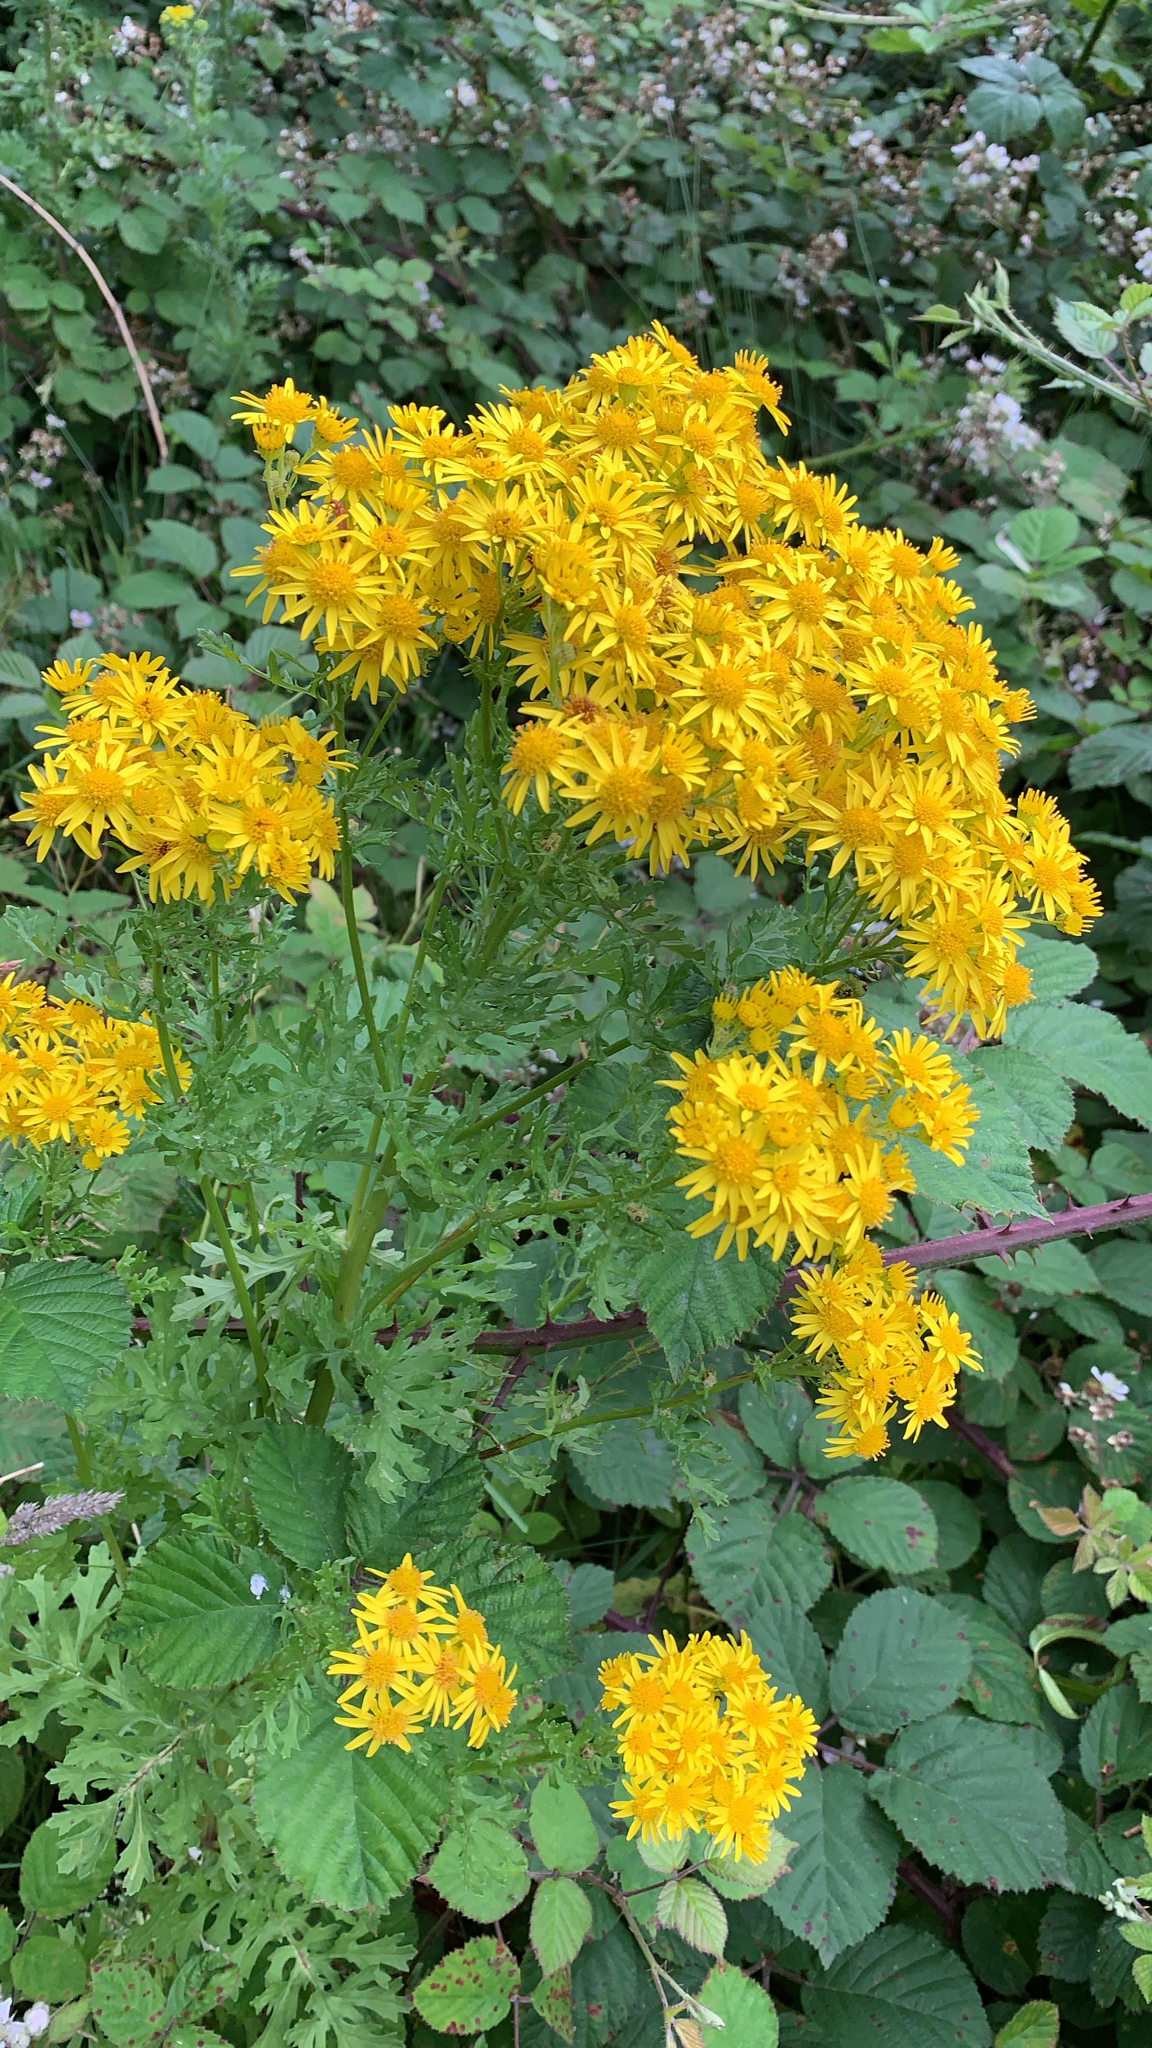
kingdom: Plantae
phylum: Tracheophyta
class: Magnoliopsida
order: Asterales
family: Asteraceae
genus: Jacobaea
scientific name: Jacobaea vulgaris
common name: Stinking willie
